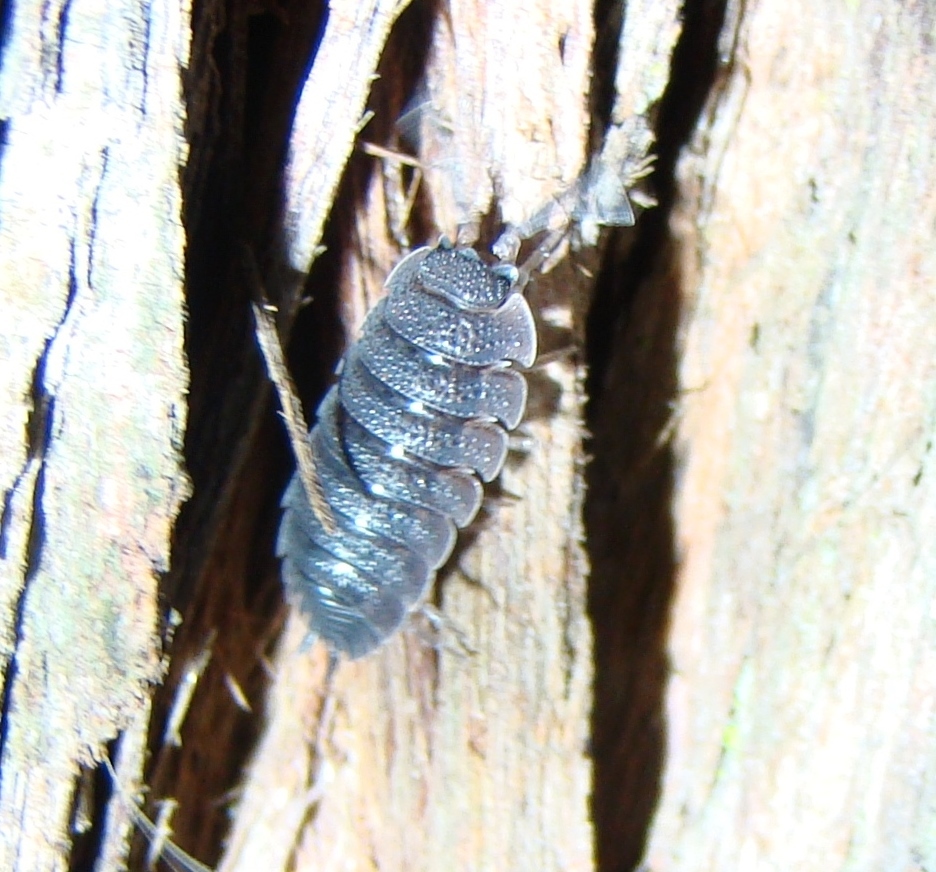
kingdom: Animalia
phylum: Arthropoda
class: Malacostraca
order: Isopoda
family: Porcellionidae
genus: Porcellio
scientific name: Porcellio scaber
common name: Common rough woodlouse
